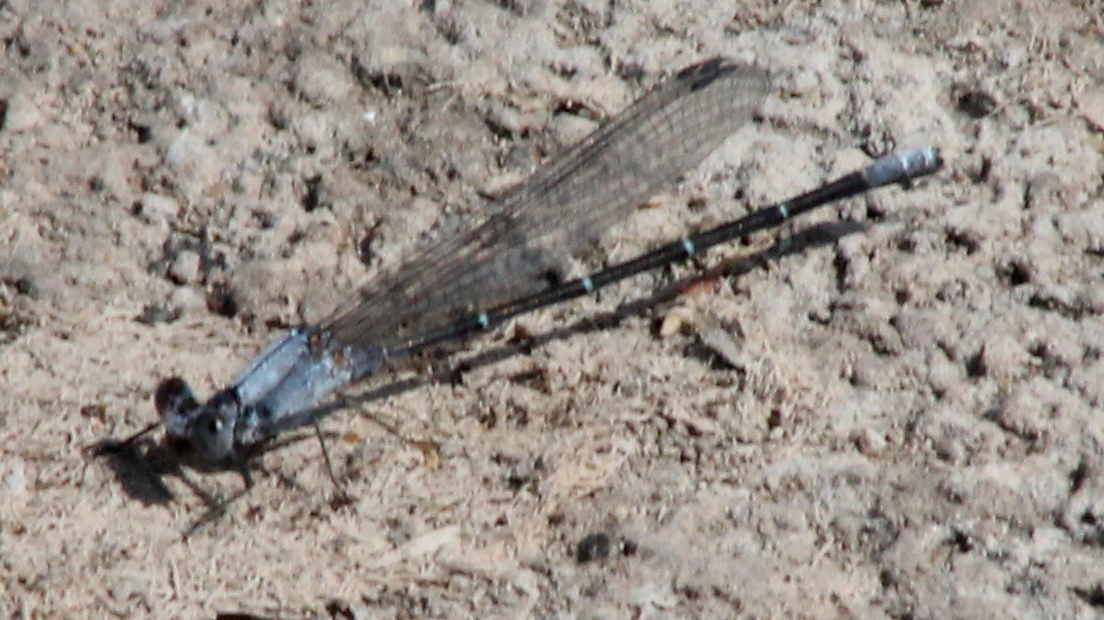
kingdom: Animalia
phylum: Arthropoda
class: Insecta
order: Odonata
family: Coenagrionidae
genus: Argia
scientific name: Argia moesta
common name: Powdered dancer
